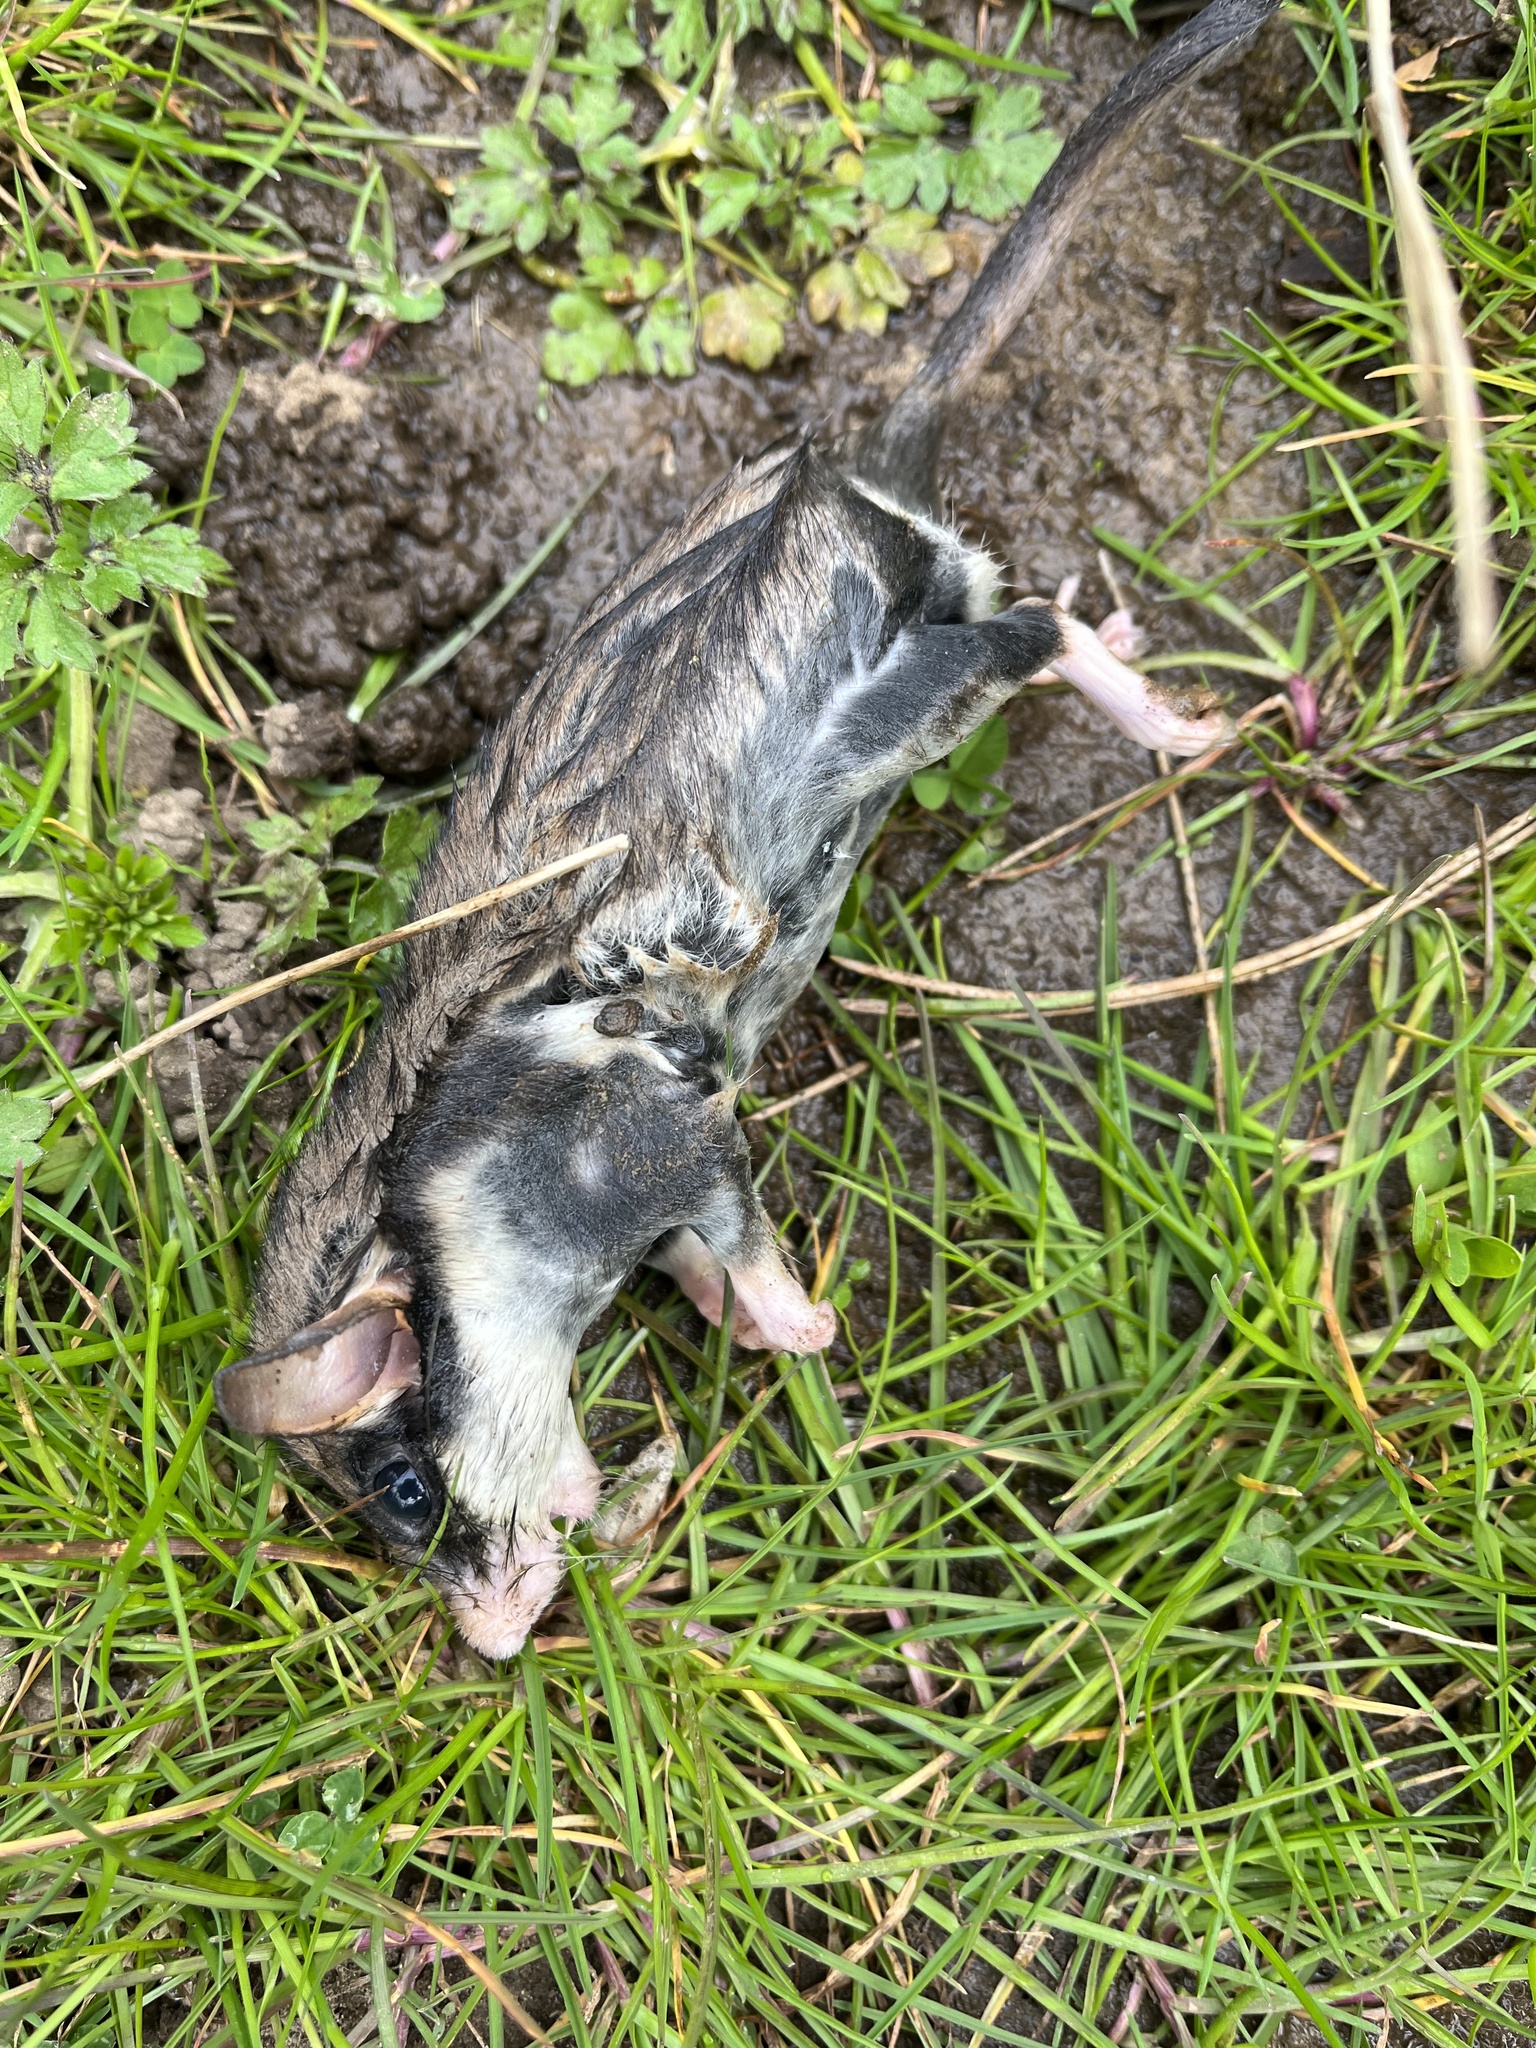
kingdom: Animalia
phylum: Chordata
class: Mammalia
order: Rodentia
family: Gliridae
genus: Eliomys
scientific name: Eliomys quercinus
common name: Garden dormouse
